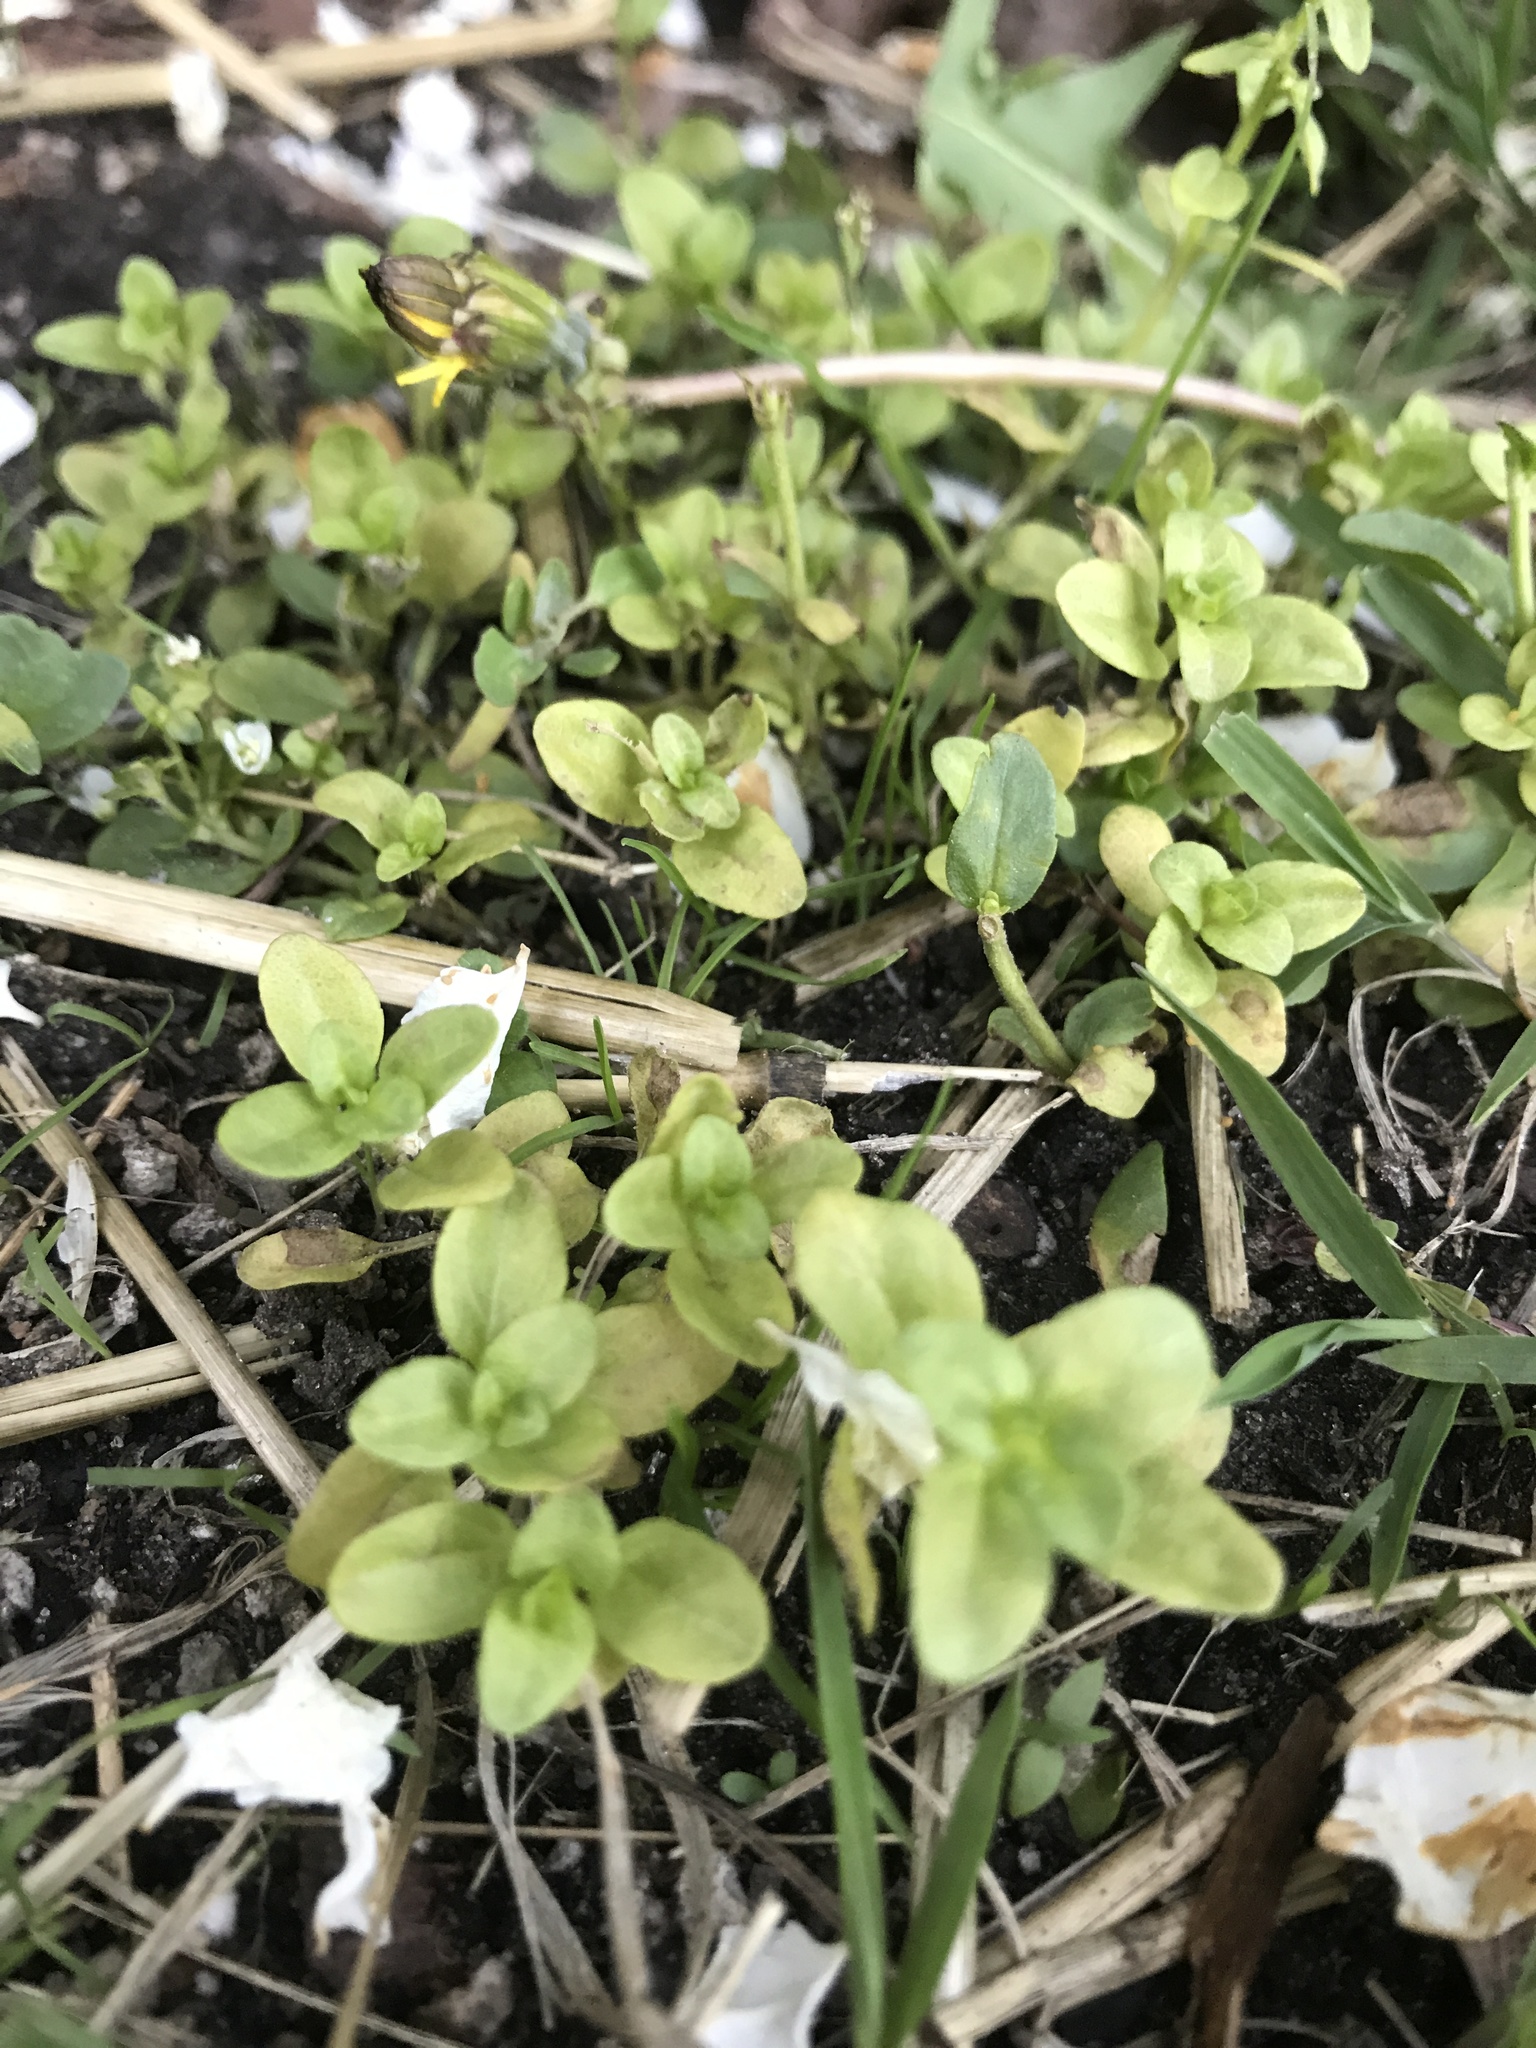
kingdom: Plantae
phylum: Tracheophyta
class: Magnoliopsida
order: Lamiales
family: Plantaginaceae
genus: Veronica
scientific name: Veronica serpyllifolia
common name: Thyme-leaved speedwell
